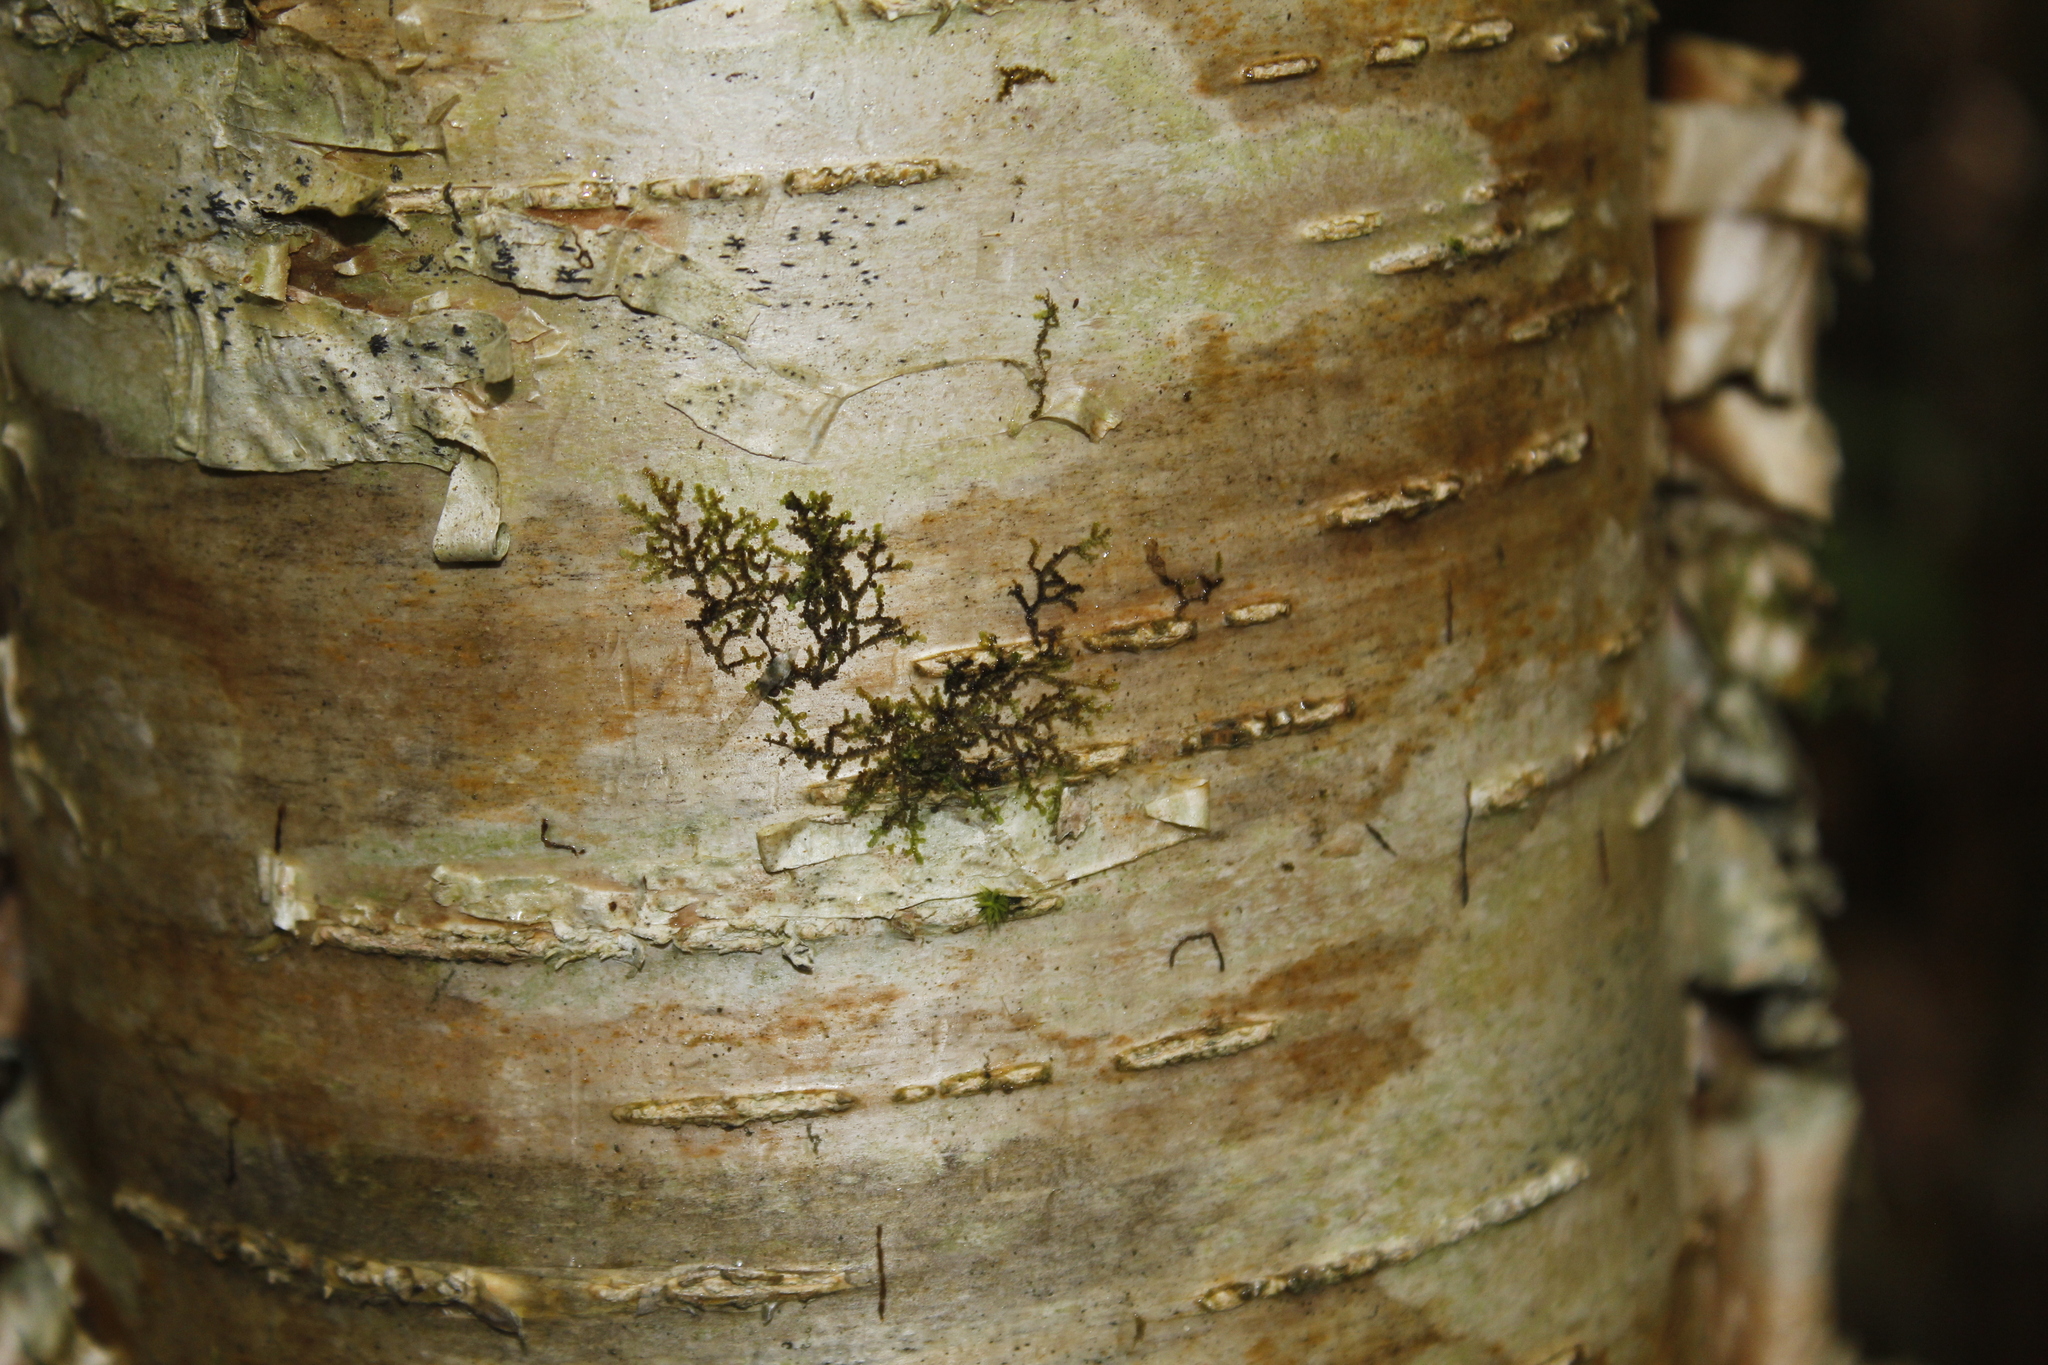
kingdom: Plantae
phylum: Marchantiophyta
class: Jungermanniopsida
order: Porellales
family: Frullaniaceae
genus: Frullania
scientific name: Frullania
